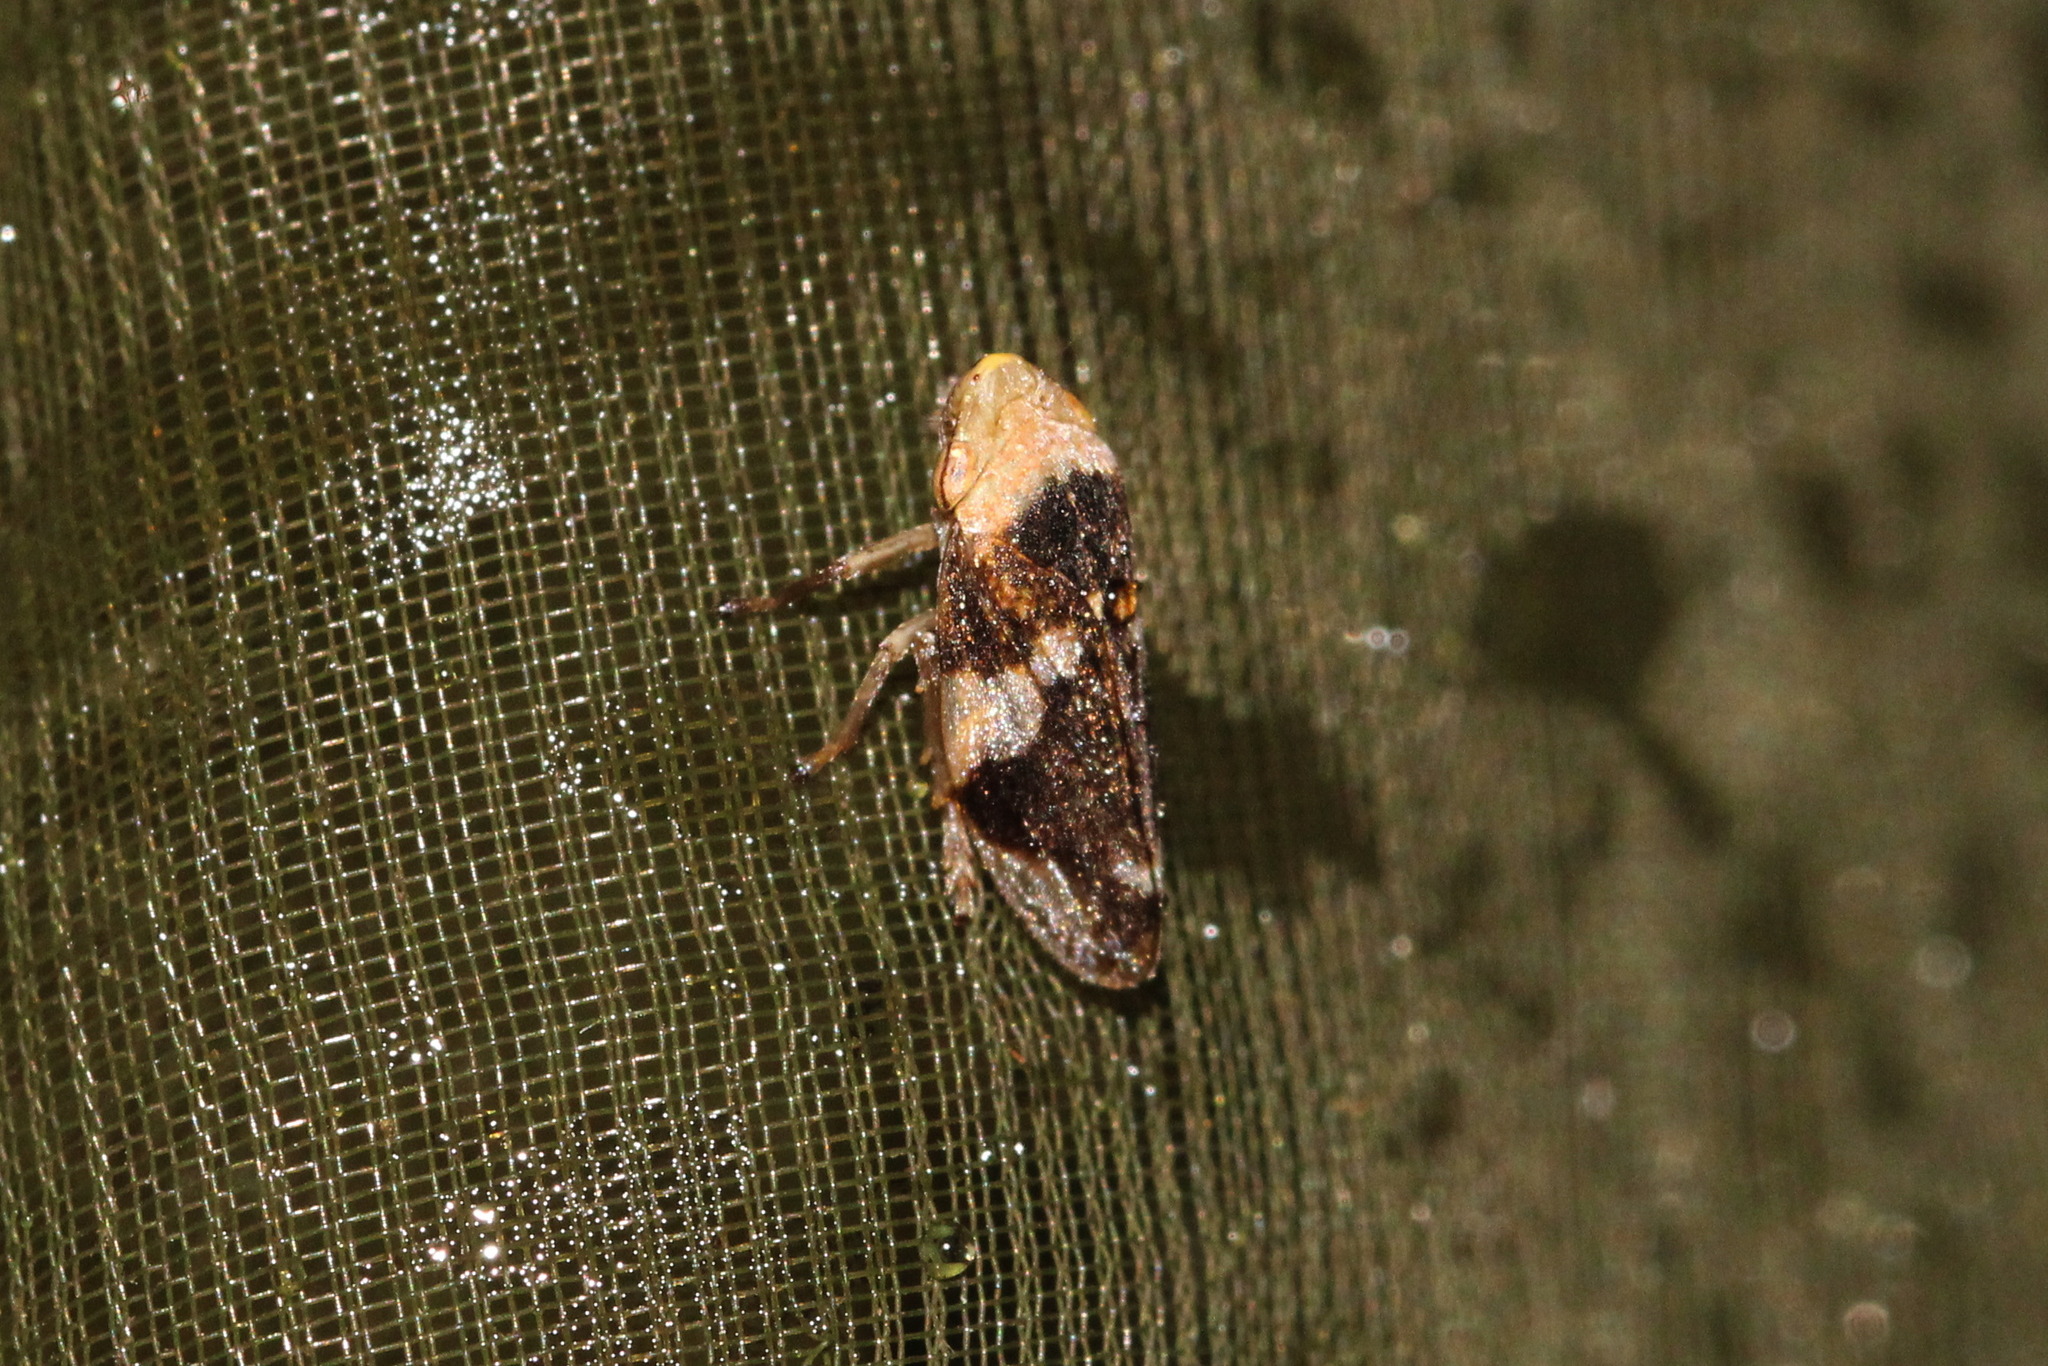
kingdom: Animalia
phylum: Arthropoda
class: Insecta
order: Hemiptera
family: Aphrophoridae
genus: Philaenus
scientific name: Philaenus spumarius
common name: Meadow spittlebug
